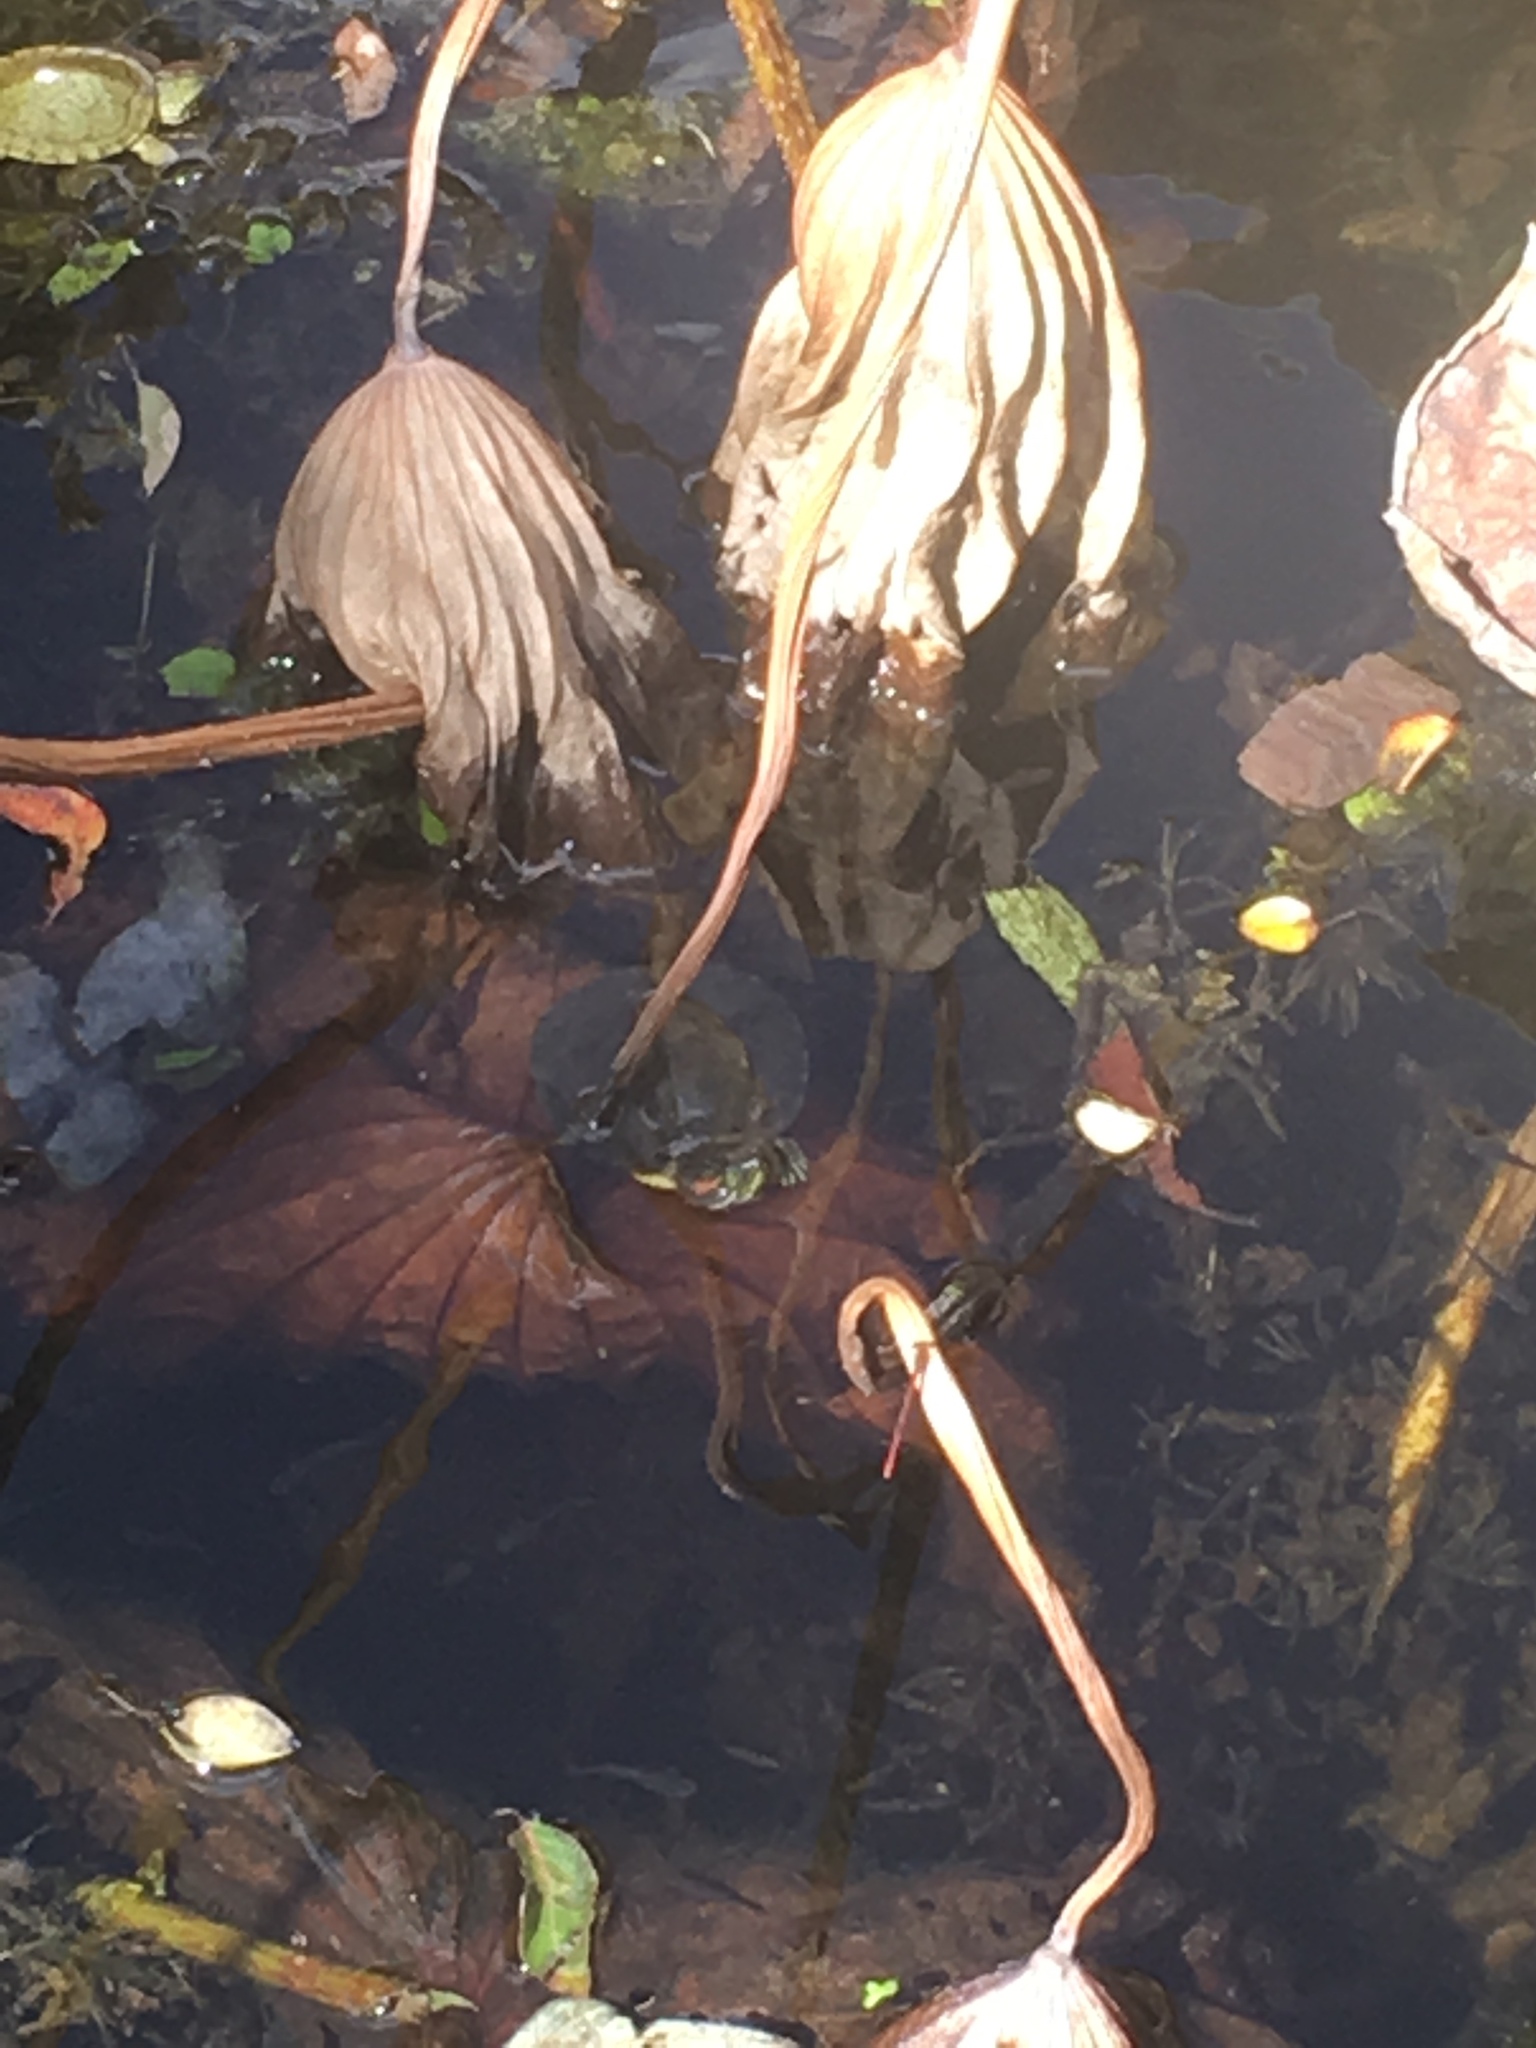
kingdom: Animalia
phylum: Chordata
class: Testudines
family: Emydidae
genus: Trachemys
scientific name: Trachemys scripta
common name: Slider
